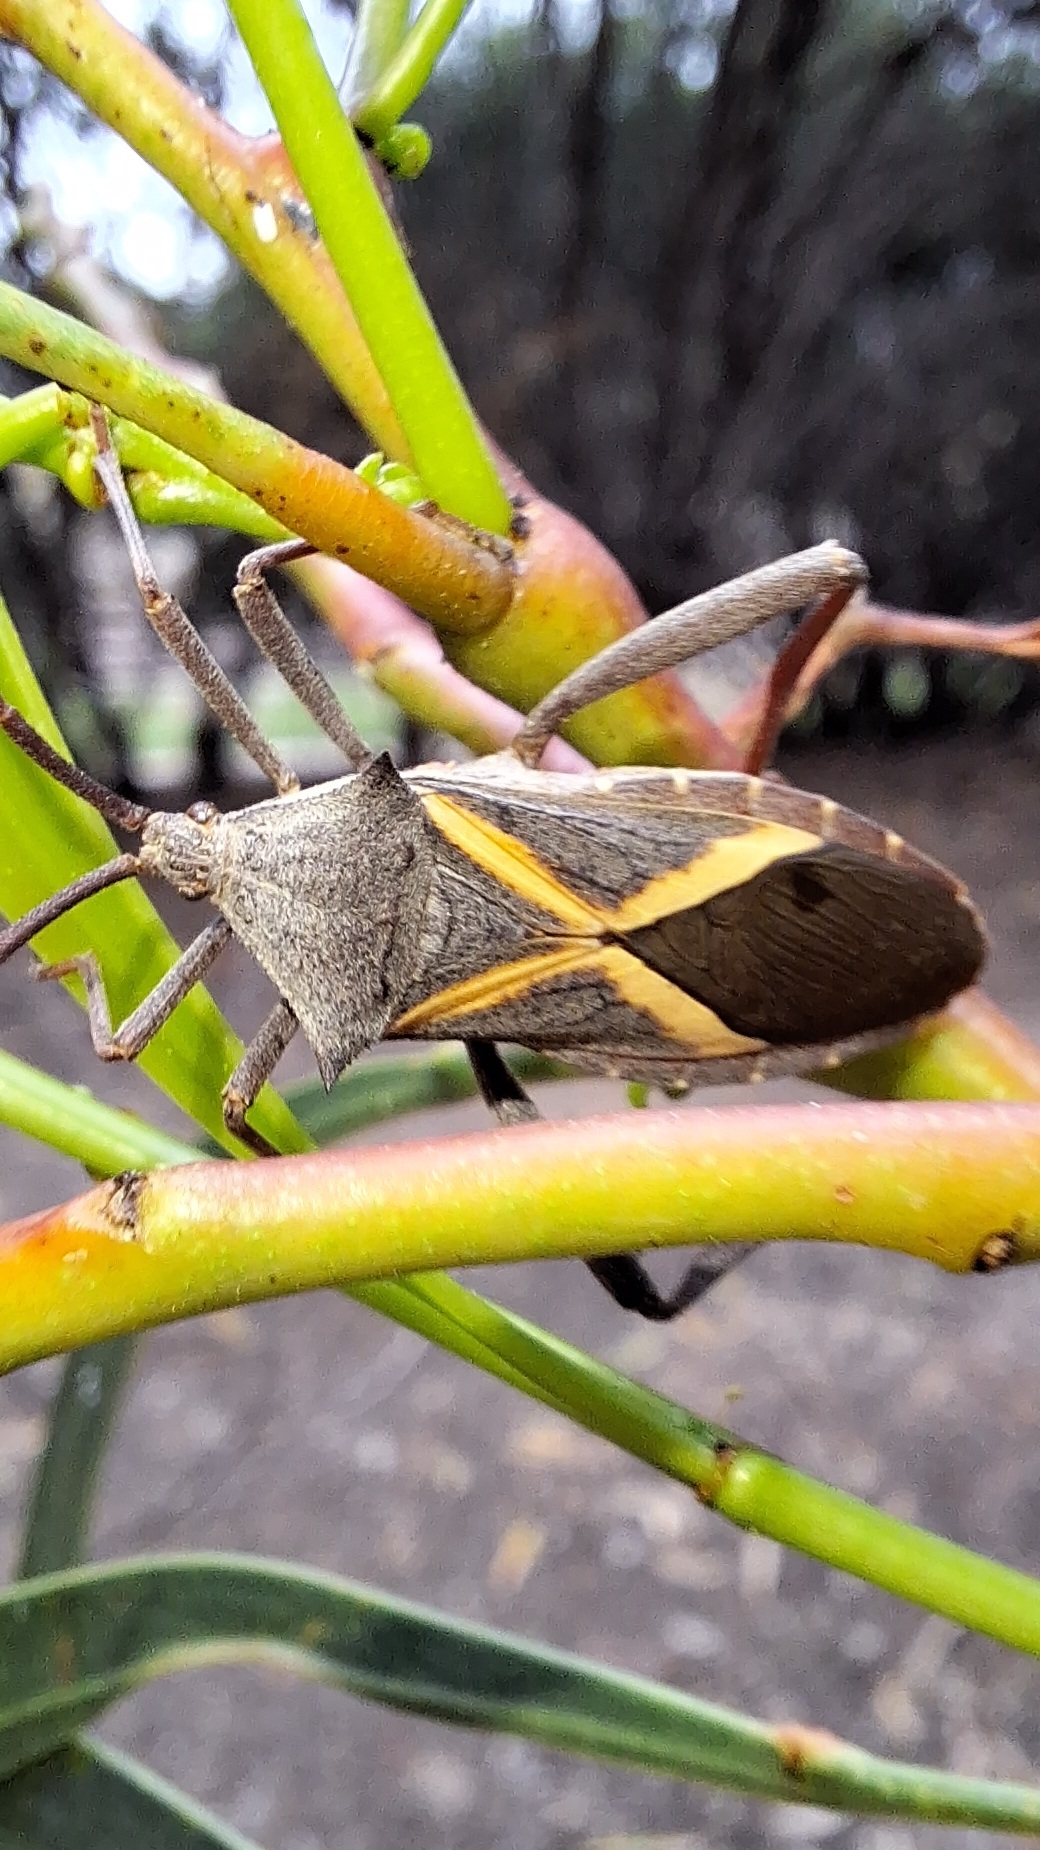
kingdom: Animalia
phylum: Arthropoda
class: Insecta
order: Hemiptera
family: Coreidae
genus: Mictis
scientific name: Mictis profana
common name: Crusader bug
